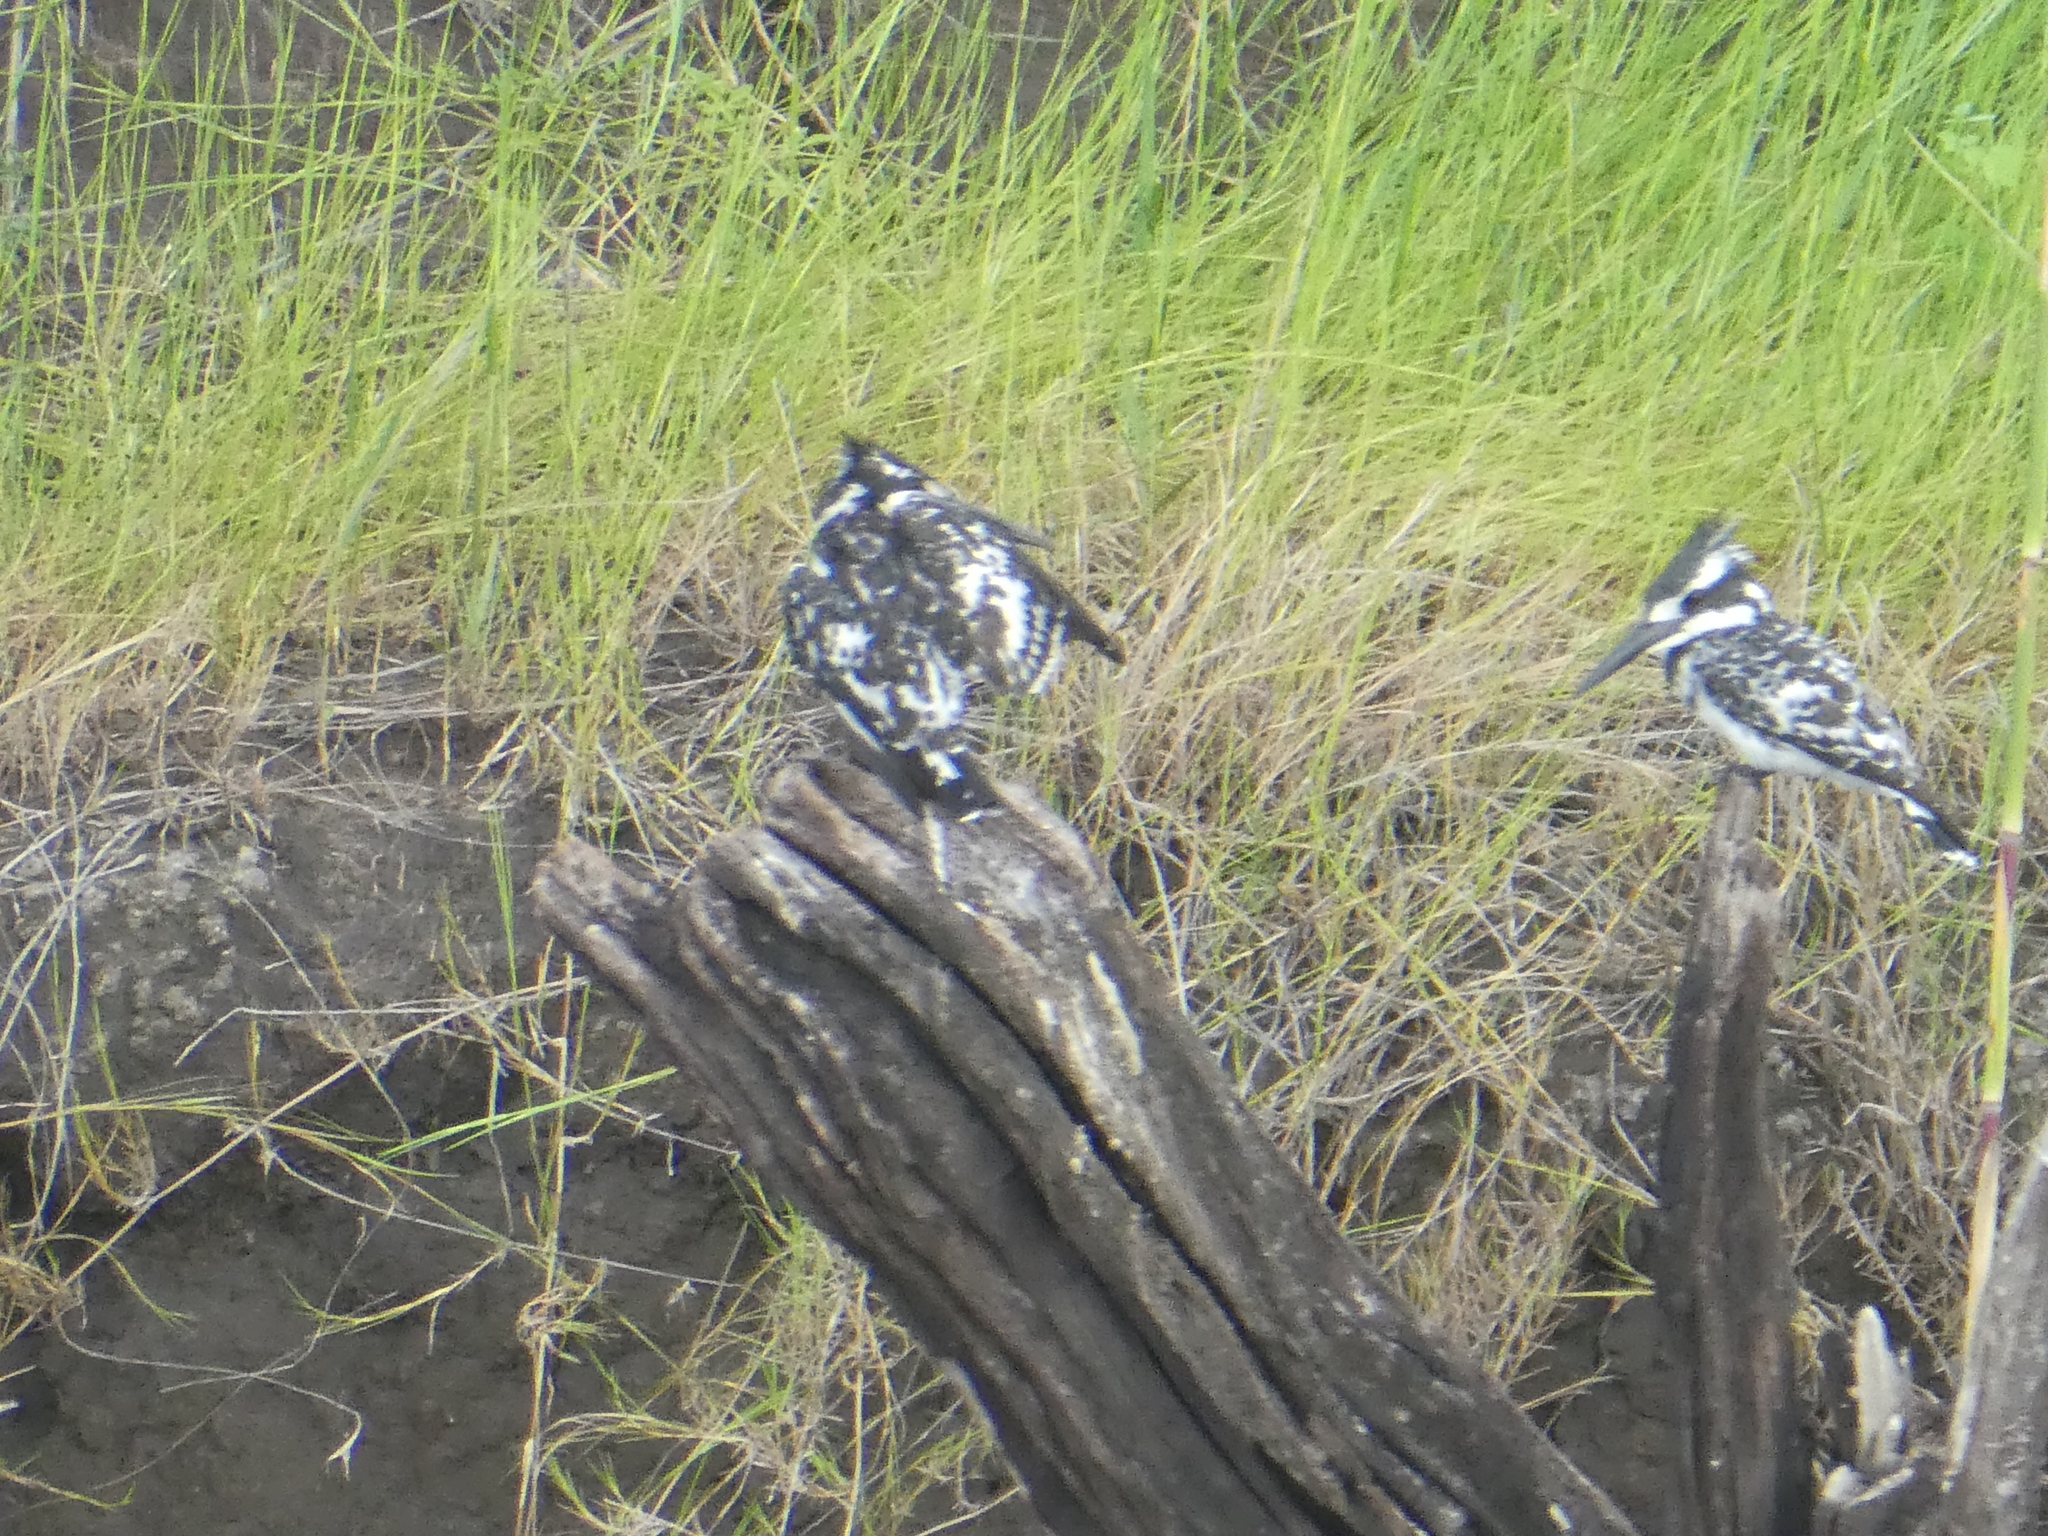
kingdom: Animalia
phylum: Chordata
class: Aves
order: Coraciiformes
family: Alcedinidae
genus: Ceryle
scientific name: Ceryle rudis
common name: Pied kingfisher
